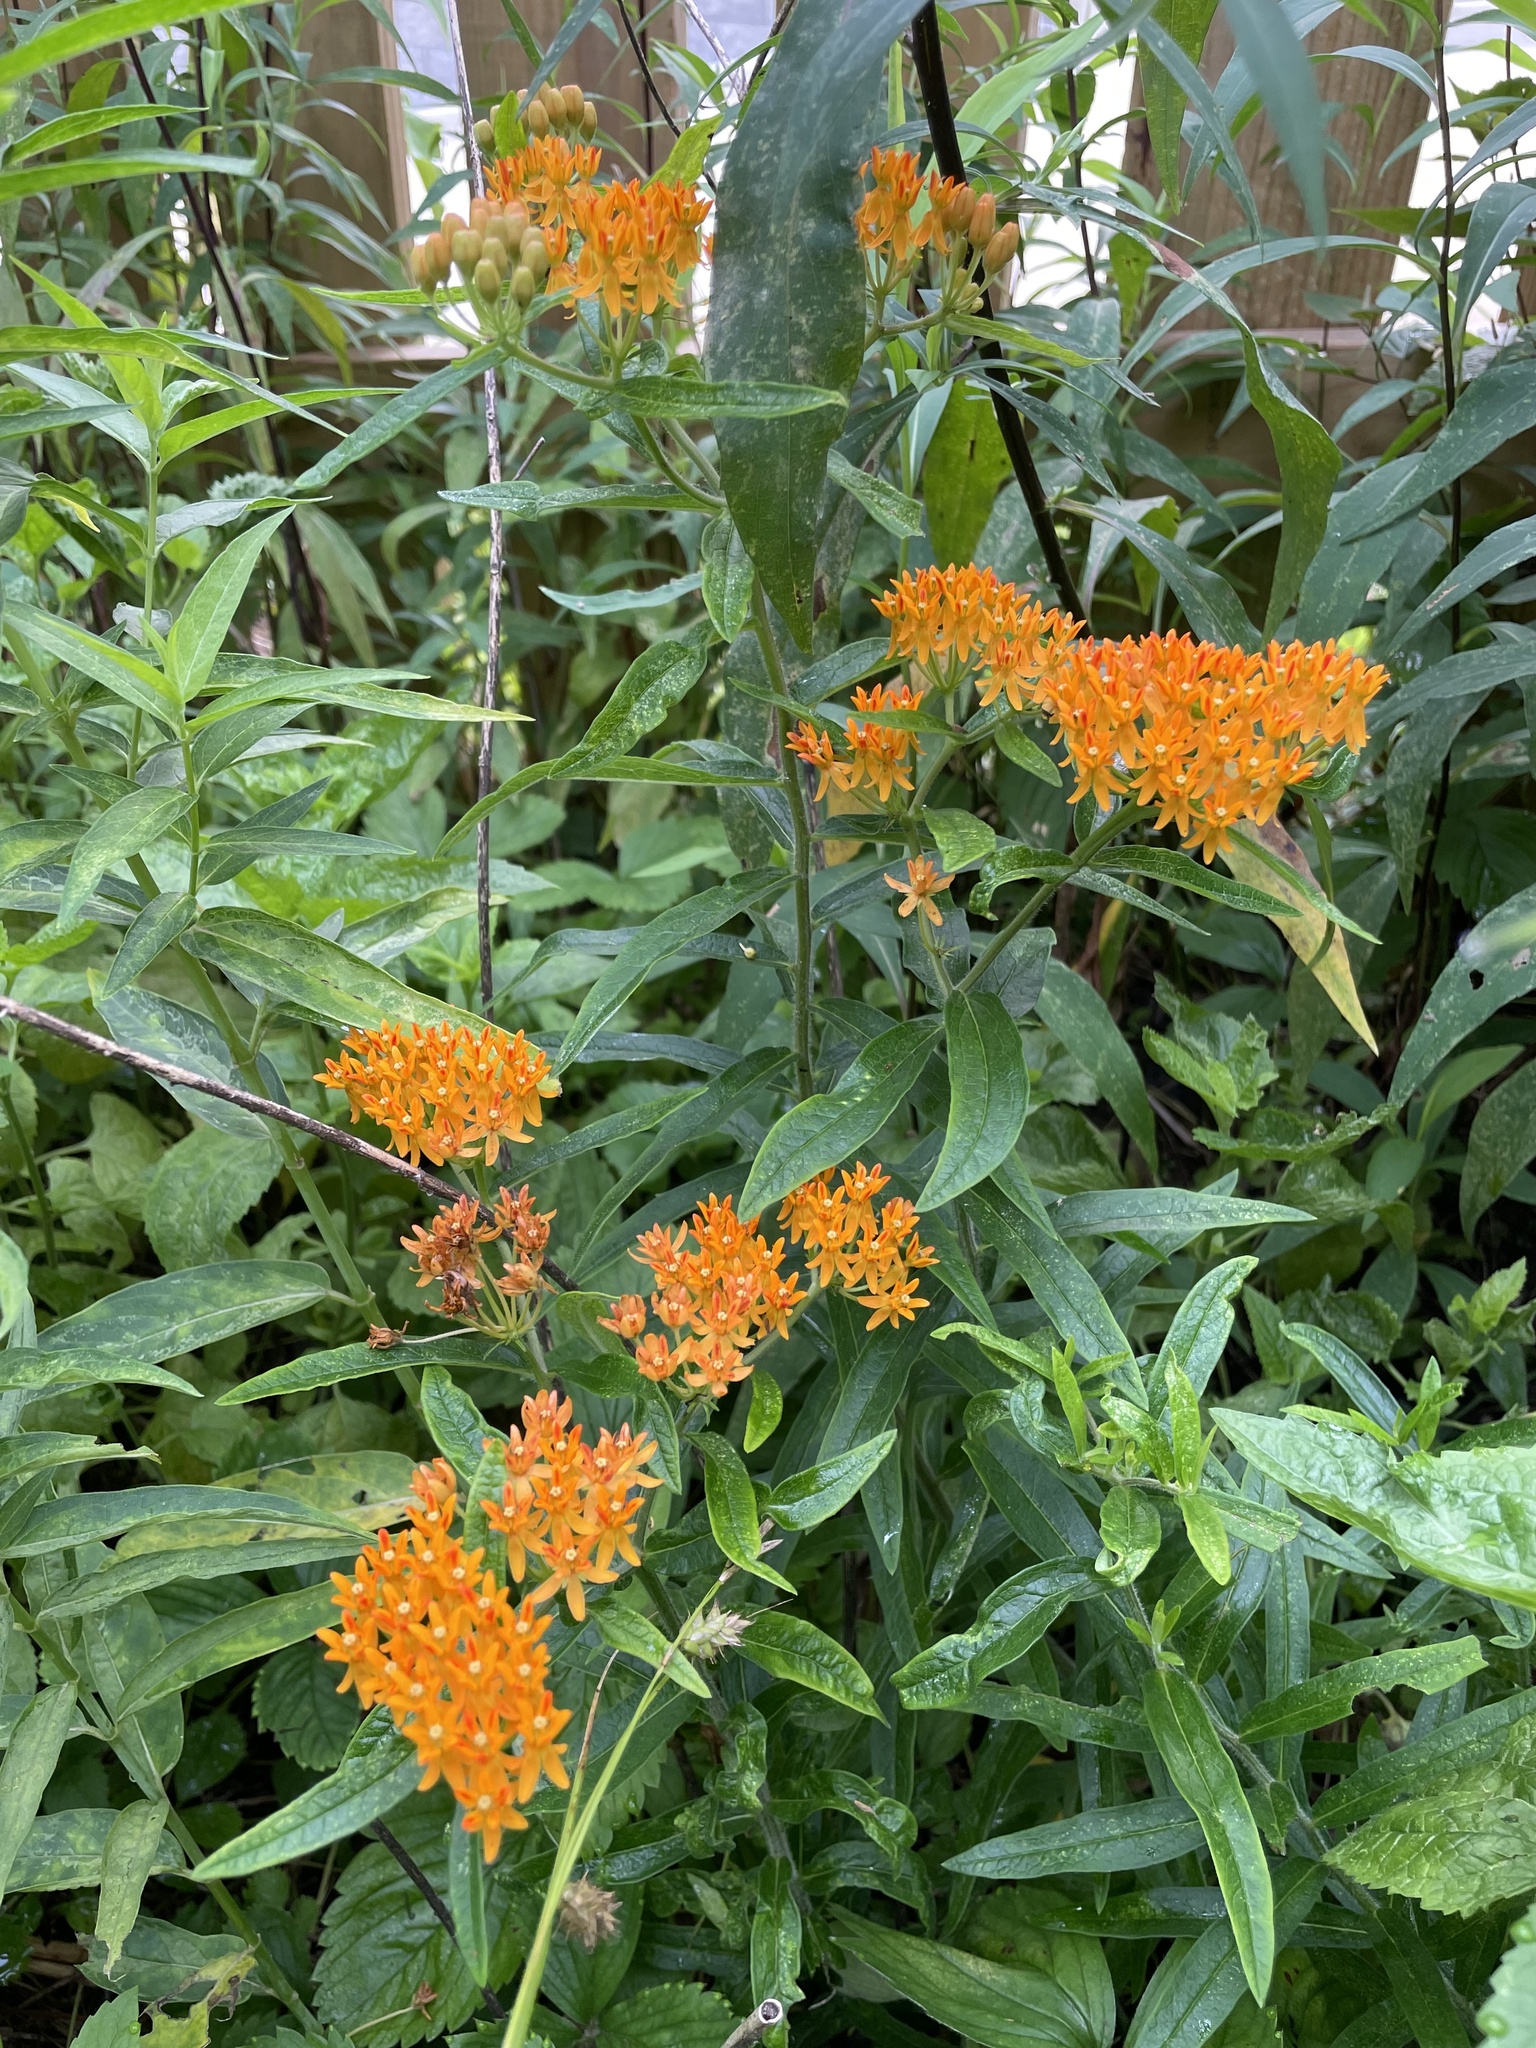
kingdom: Plantae
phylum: Tracheophyta
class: Magnoliopsida
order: Gentianales
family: Apocynaceae
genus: Asclepias
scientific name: Asclepias tuberosa
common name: Butterfly milkweed
